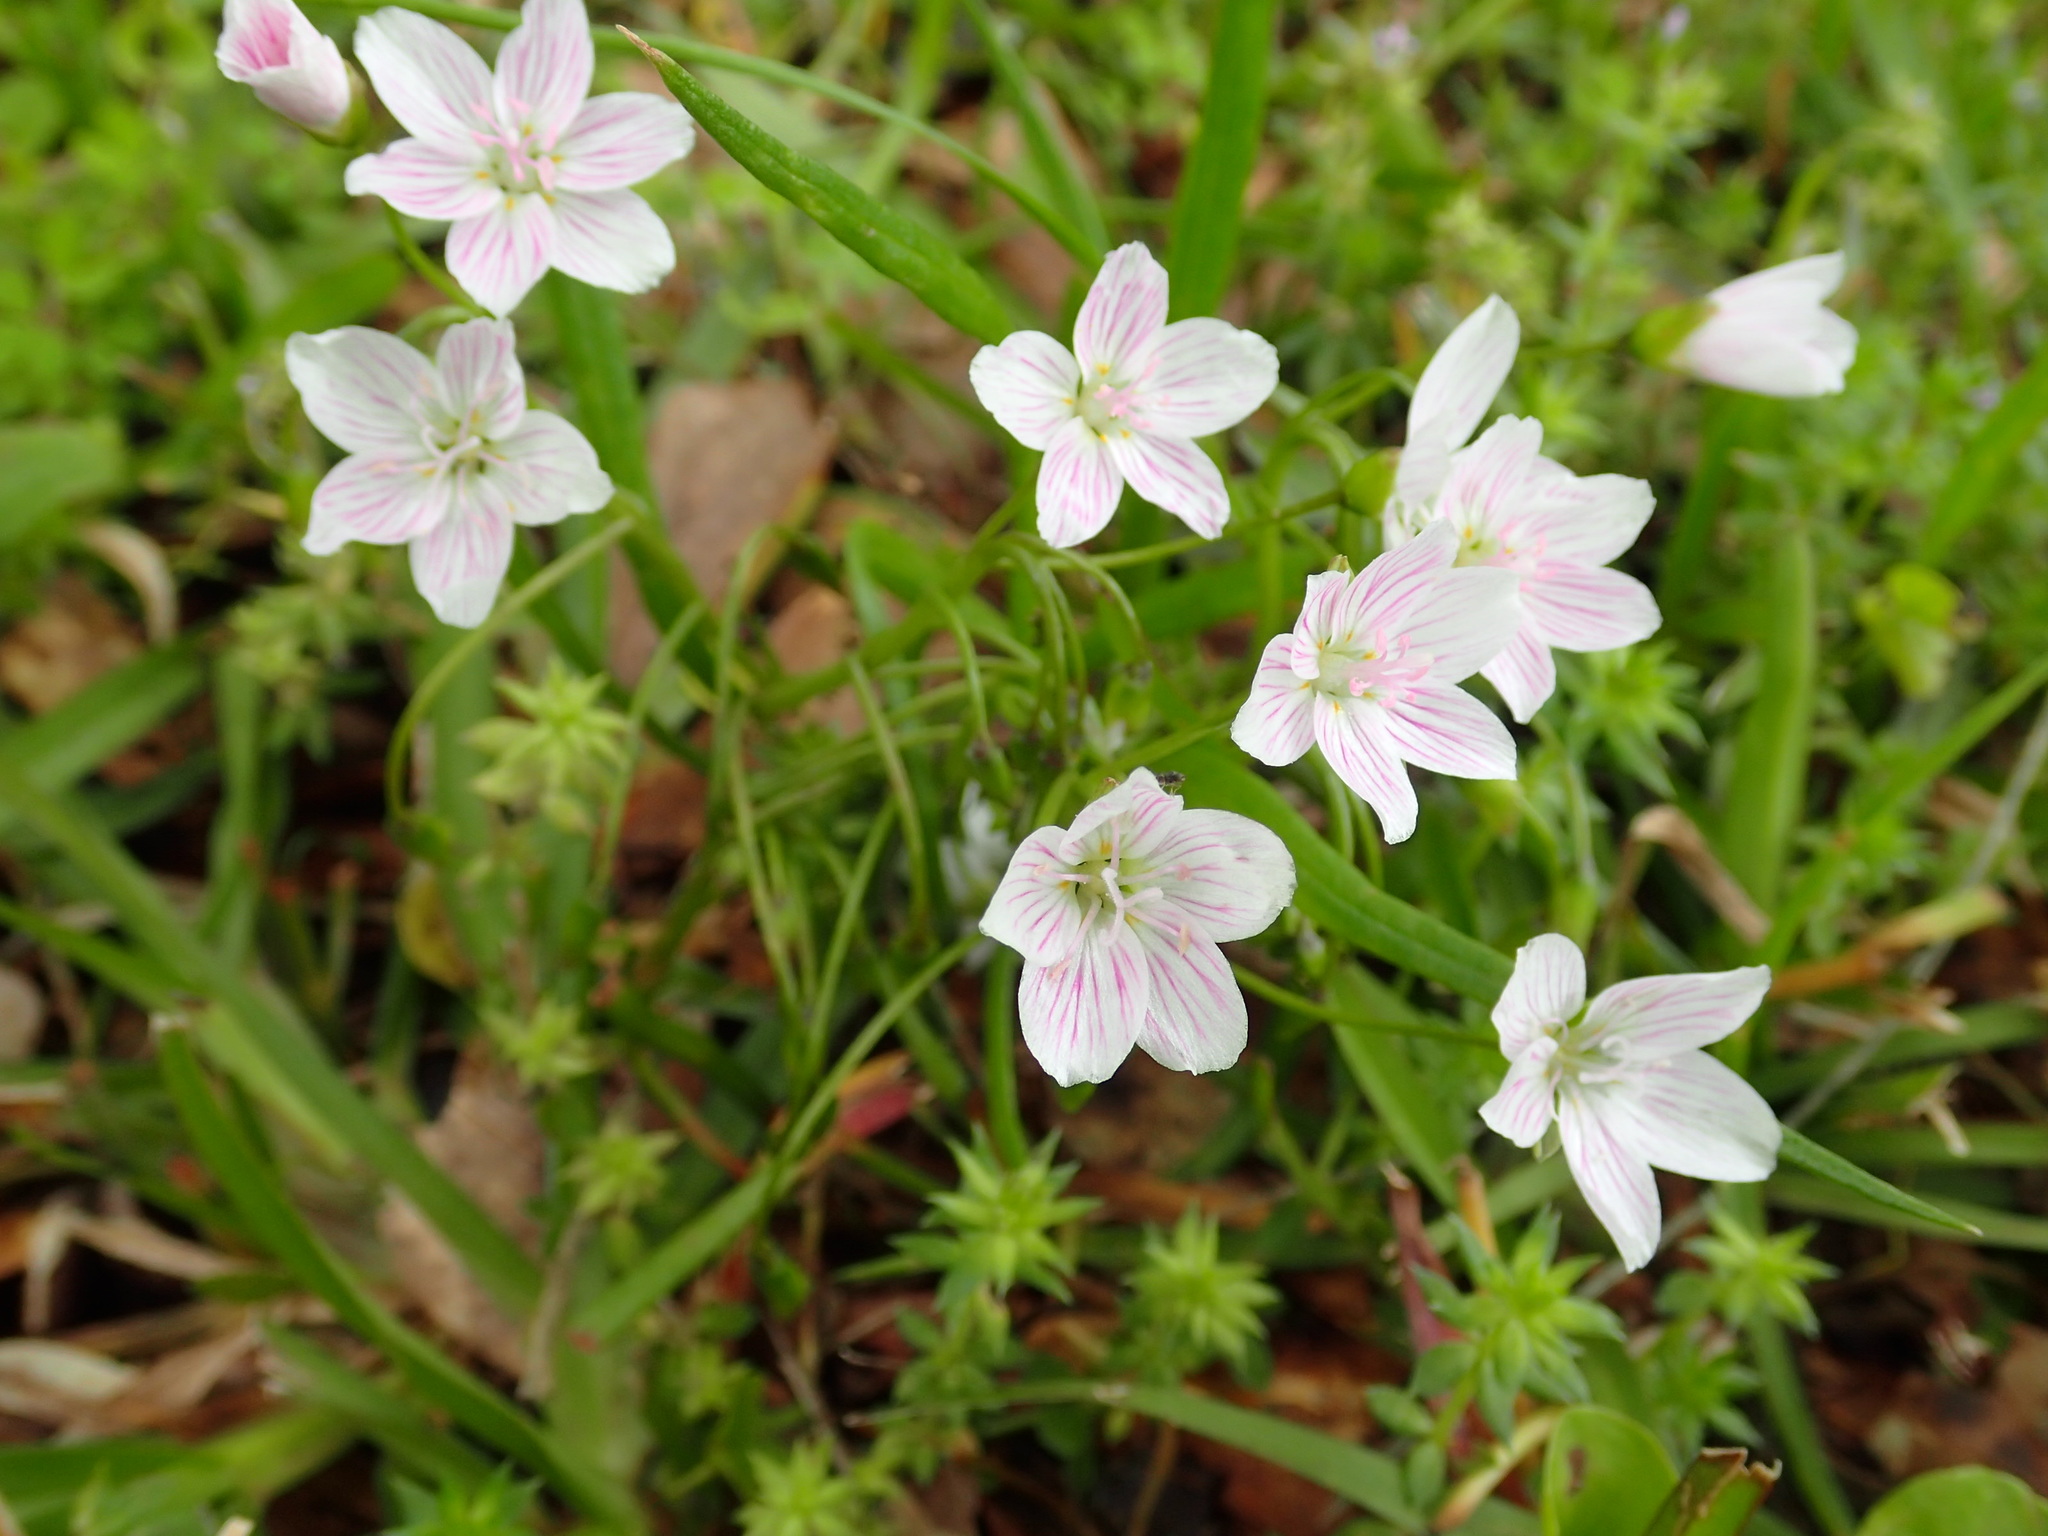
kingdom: Plantae
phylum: Tracheophyta
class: Magnoliopsida
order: Caryophyllales
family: Montiaceae
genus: Claytonia
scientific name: Claytonia virginica
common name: Virginia springbeauty
